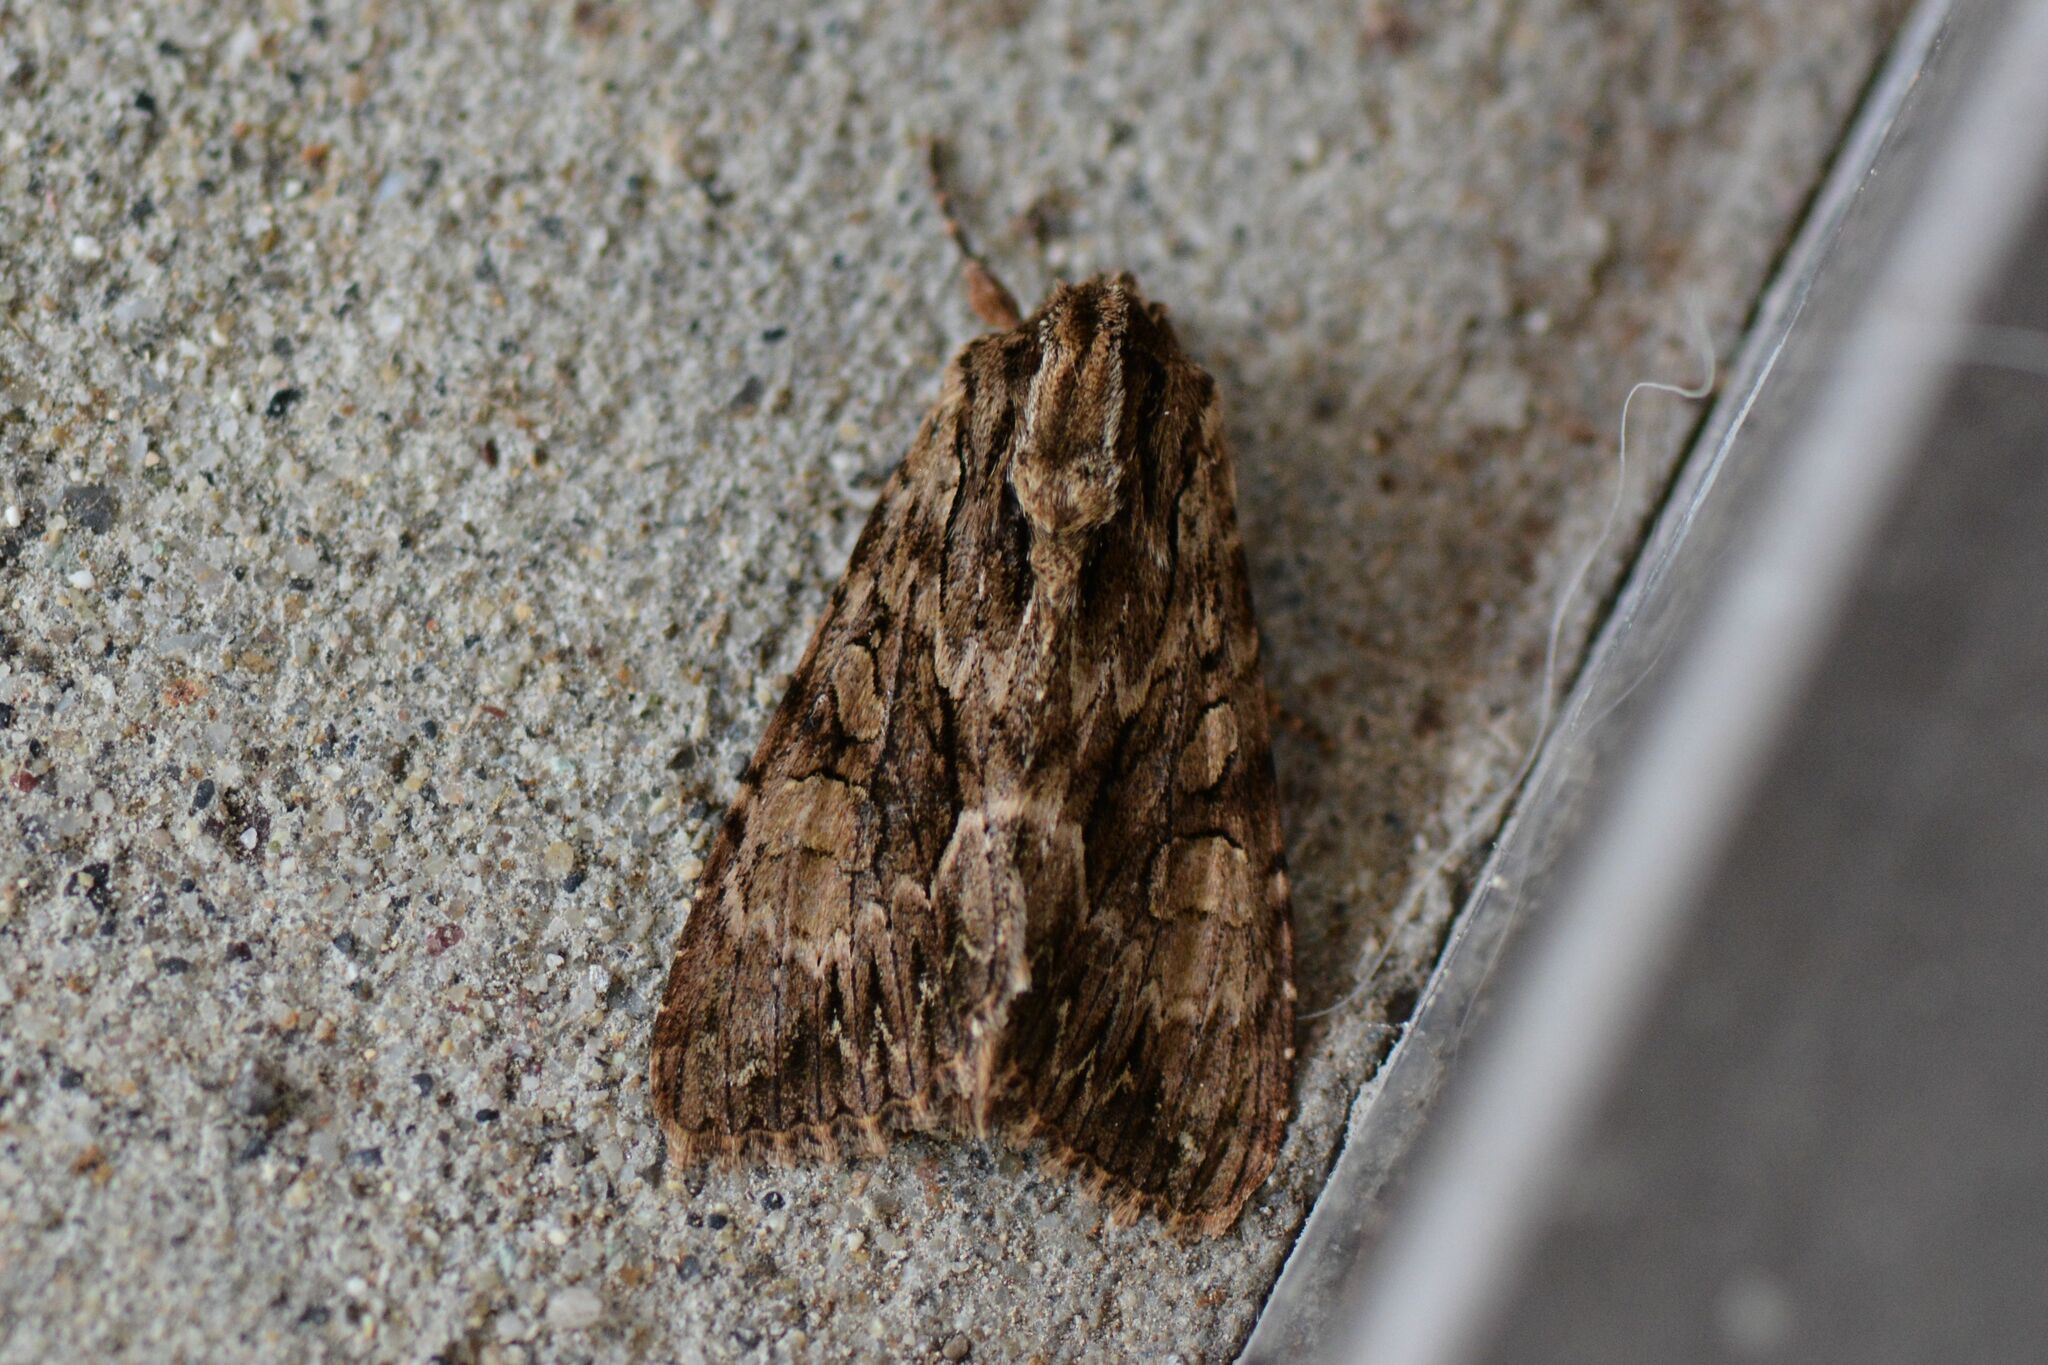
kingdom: Animalia
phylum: Arthropoda
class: Insecta
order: Lepidoptera
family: Noctuidae
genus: Apamea
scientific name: Apamea monoglypha
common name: Dark arches
